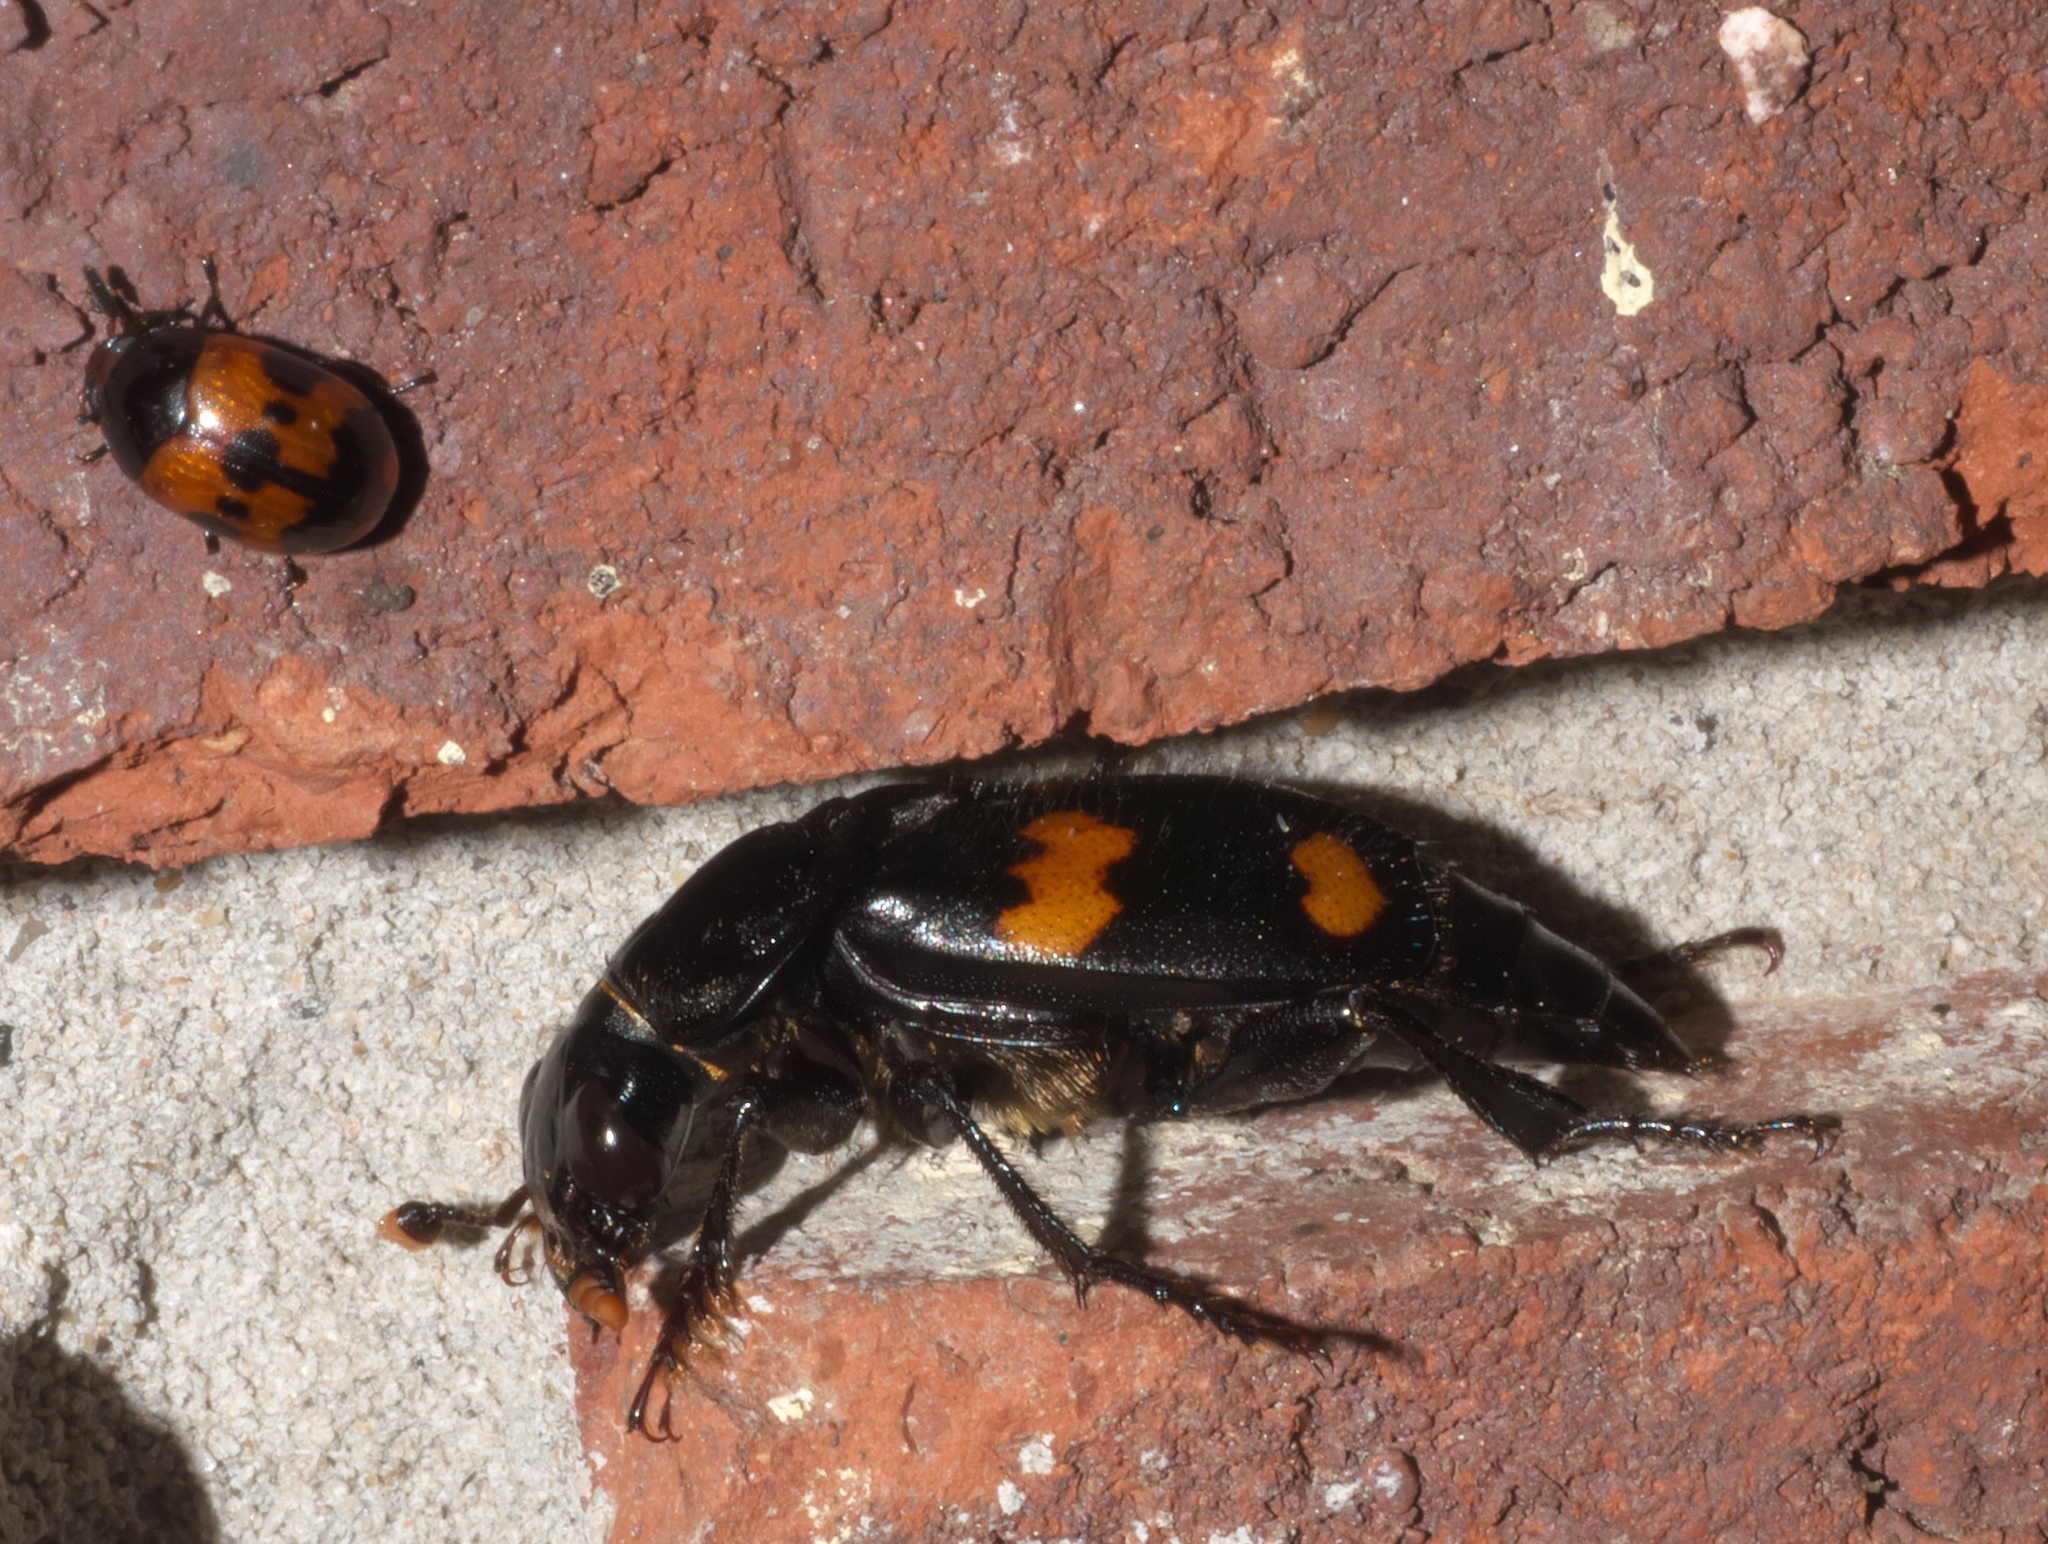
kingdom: Animalia
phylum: Arthropoda
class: Insecta
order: Coleoptera
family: Staphylinidae
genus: Nicrophorus
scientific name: Nicrophorus orbicollis
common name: Roundneck sexton beetle
